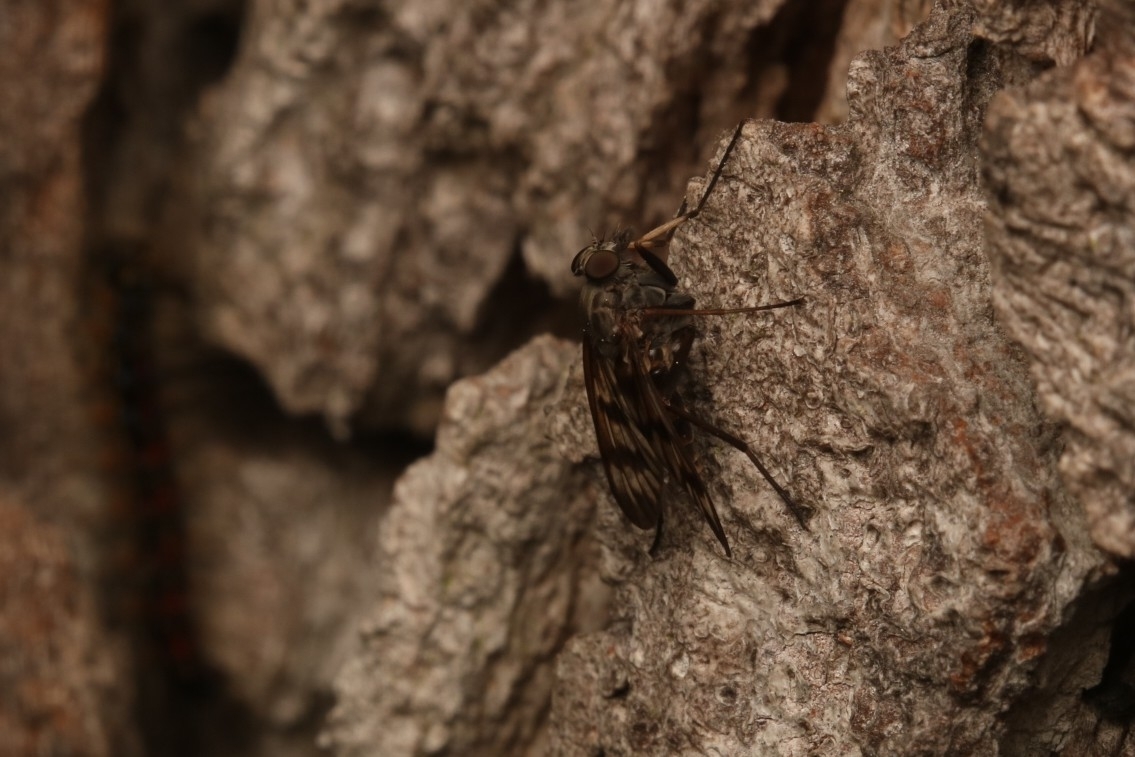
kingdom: Animalia
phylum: Arthropoda
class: Insecta
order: Diptera
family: Rhagionidae
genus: Rhagio
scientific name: Rhagio mystaceus
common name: Common snipe fly
